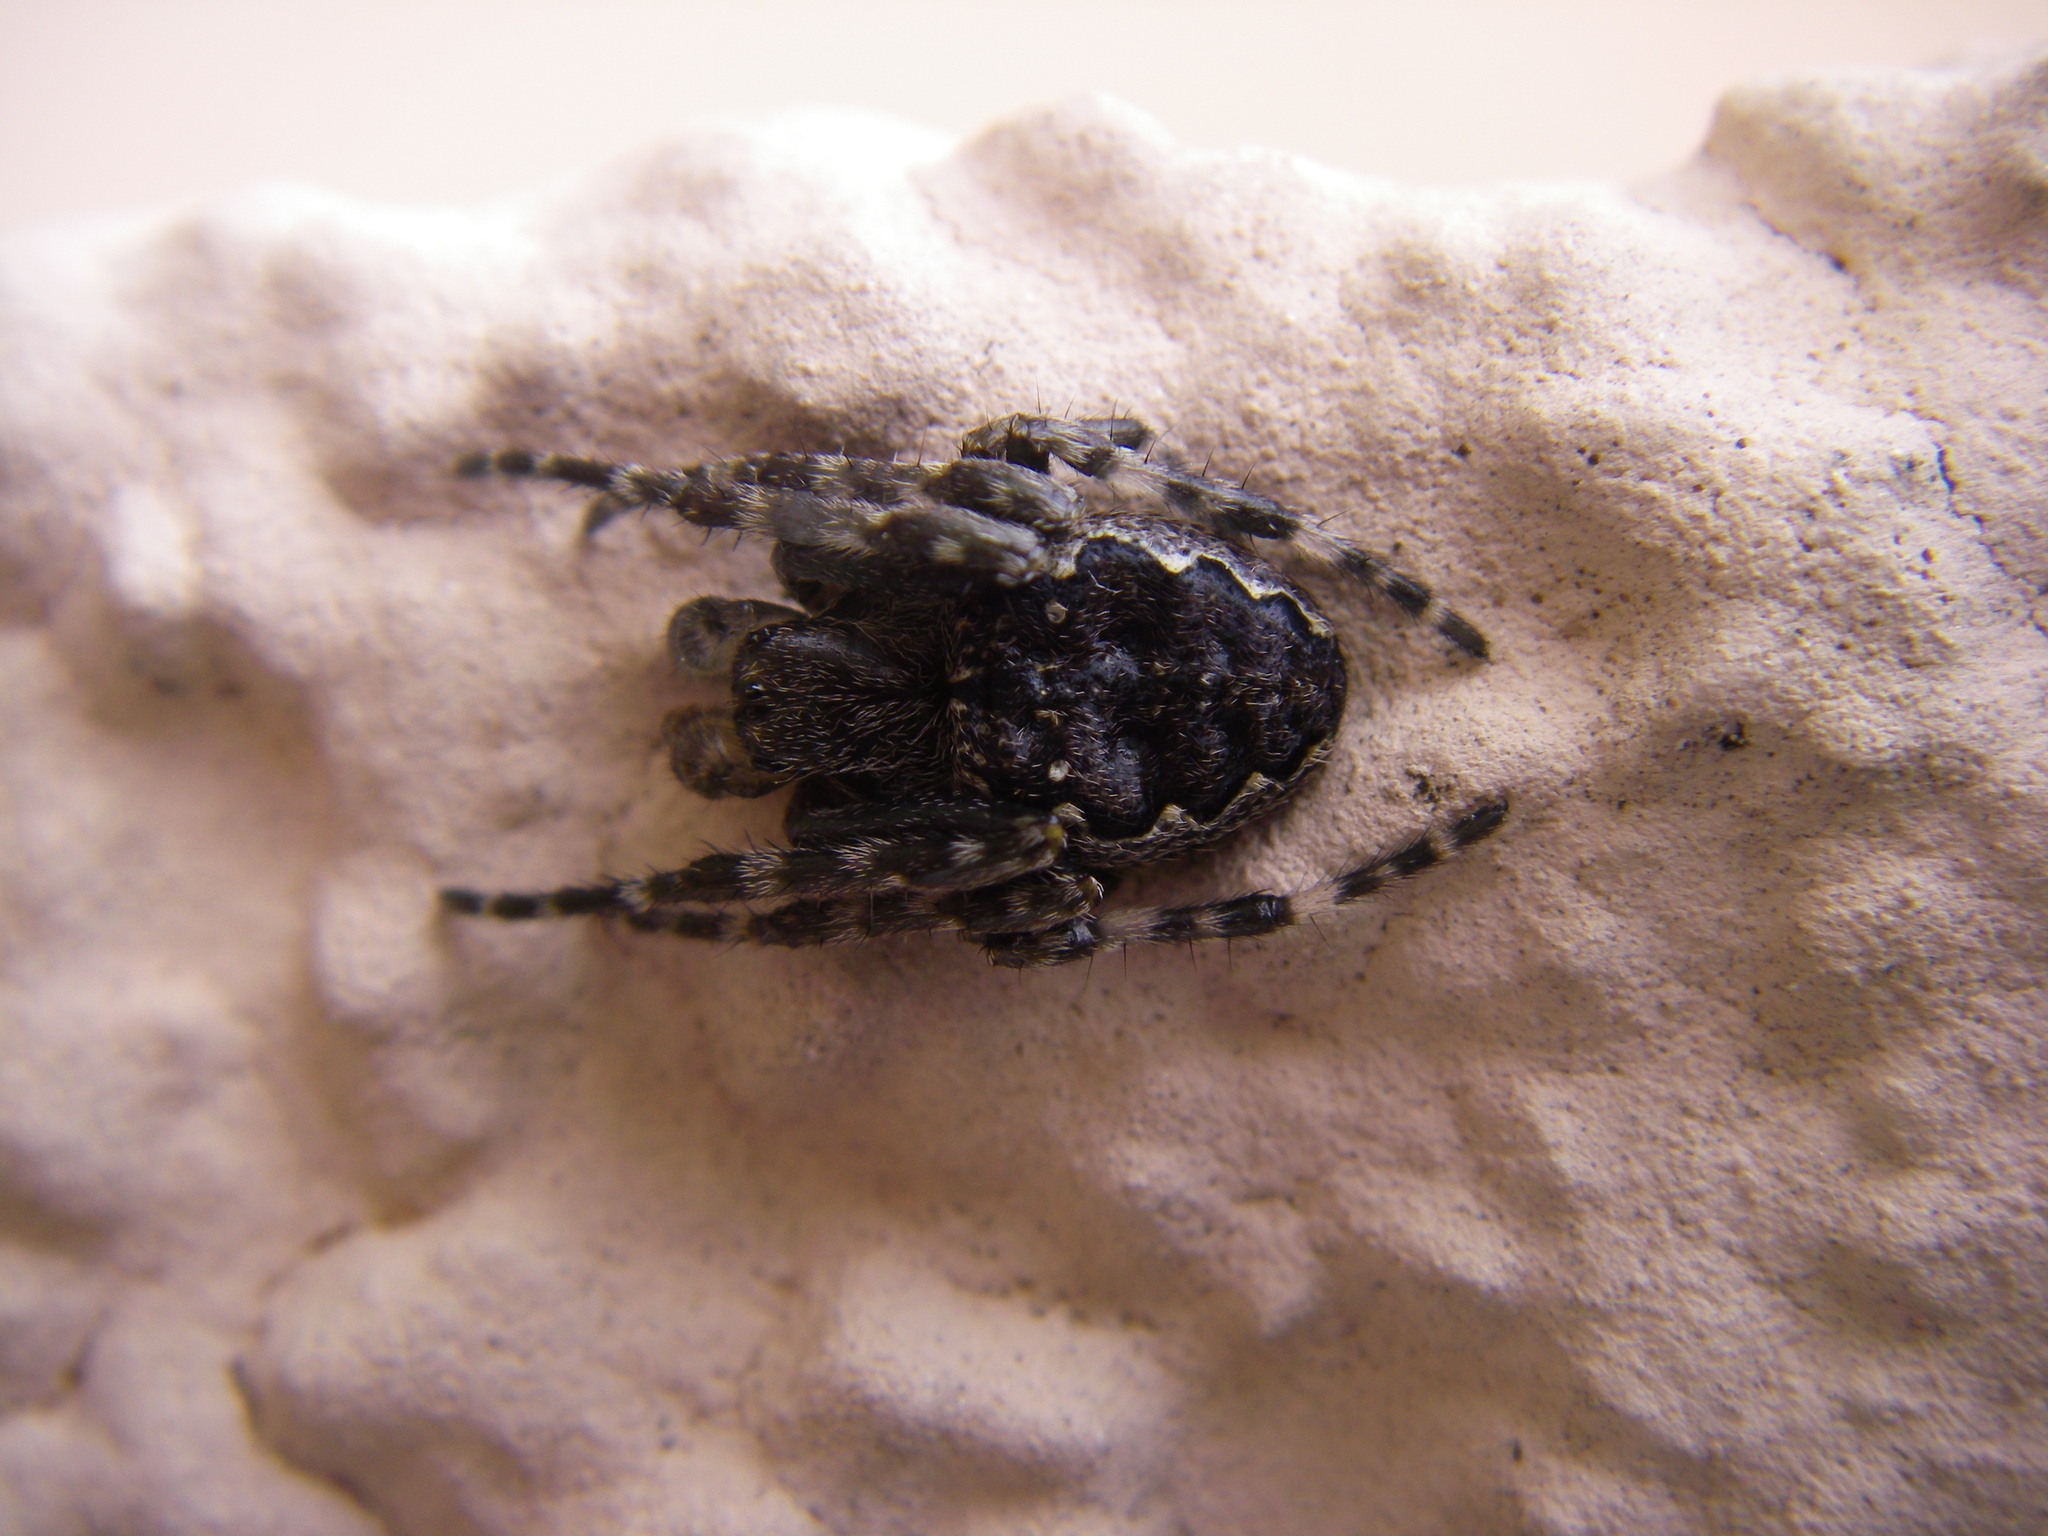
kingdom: Animalia
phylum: Arthropoda
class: Arachnida
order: Araneae
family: Araneidae
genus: Nuctenea
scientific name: Nuctenea umbratica
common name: Toad spider
